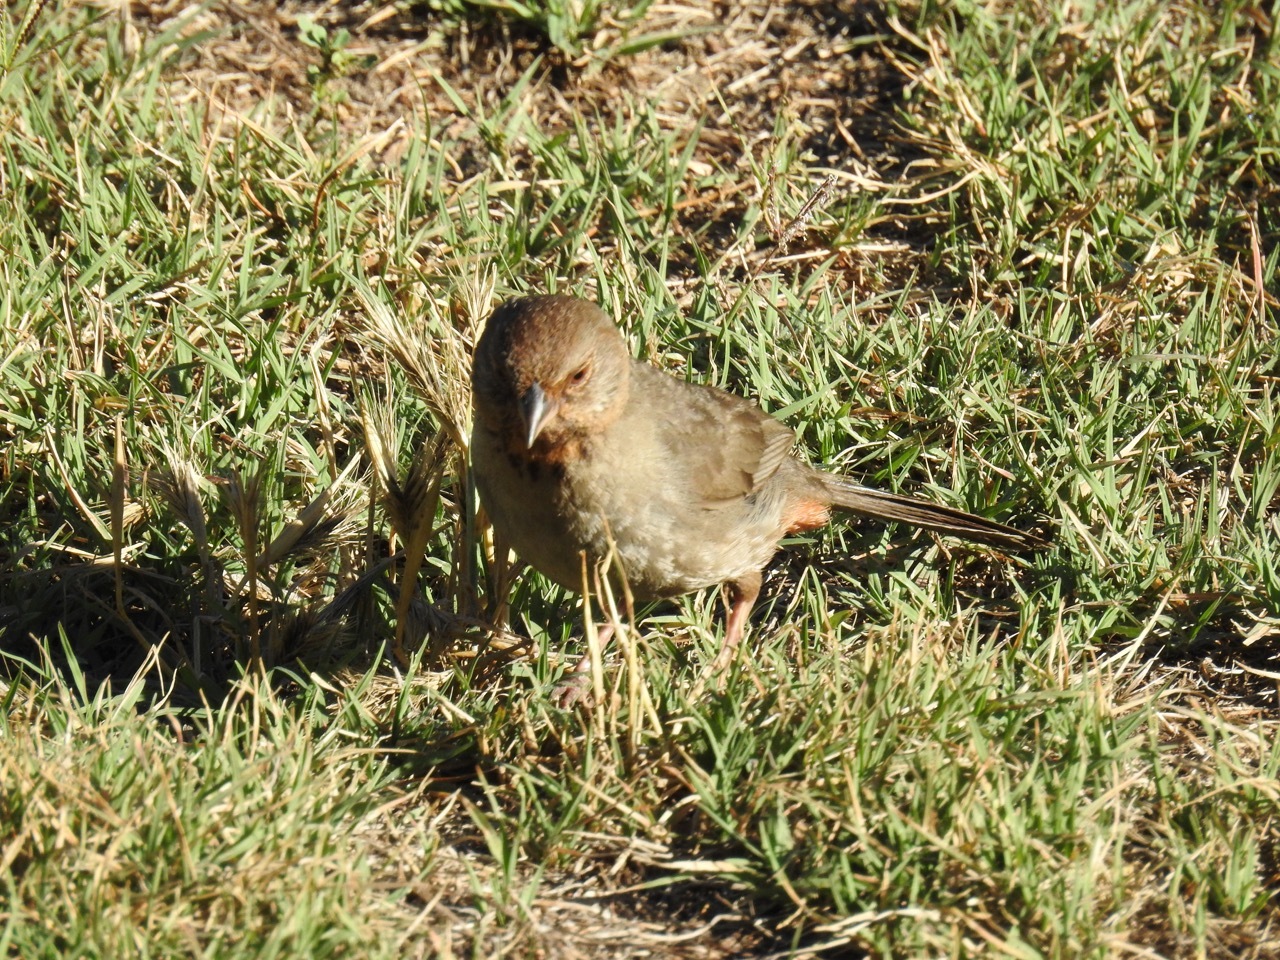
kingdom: Animalia
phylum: Chordata
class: Aves
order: Passeriformes
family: Passerellidae
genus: Melozone
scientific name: Melozone crissalis
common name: California towhee
